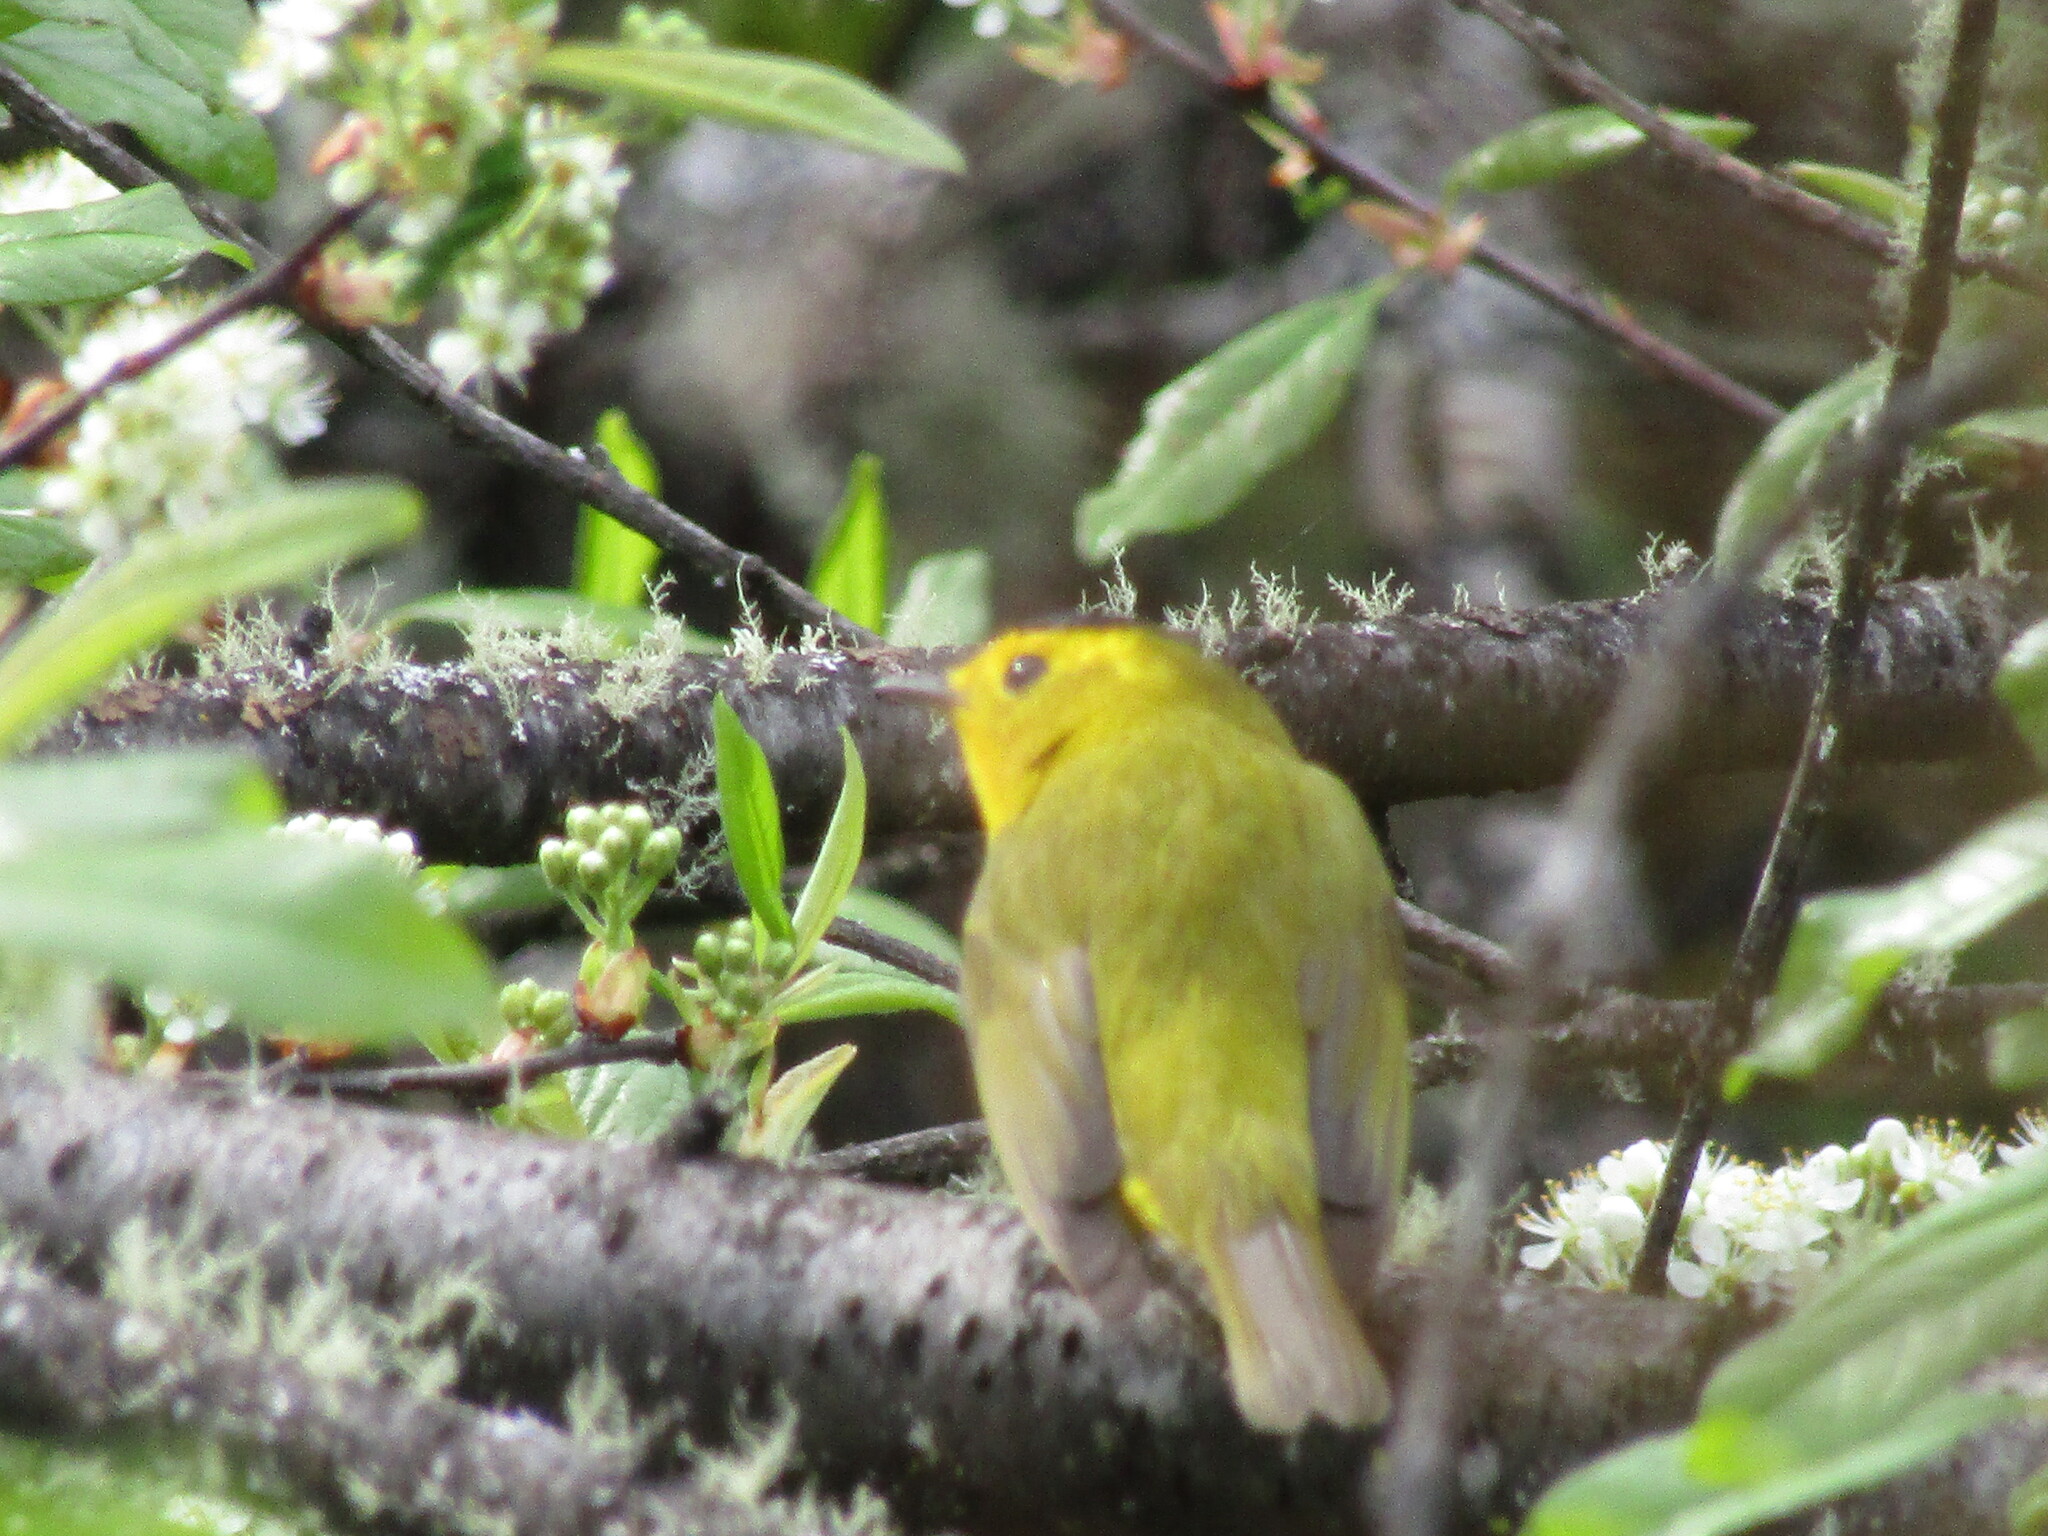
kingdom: Animalia
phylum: Chordata
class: Aves
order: Passeriformes
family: Parulidae
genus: Cardellina
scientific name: Cardellina pusilla
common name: Wilson's warbler
